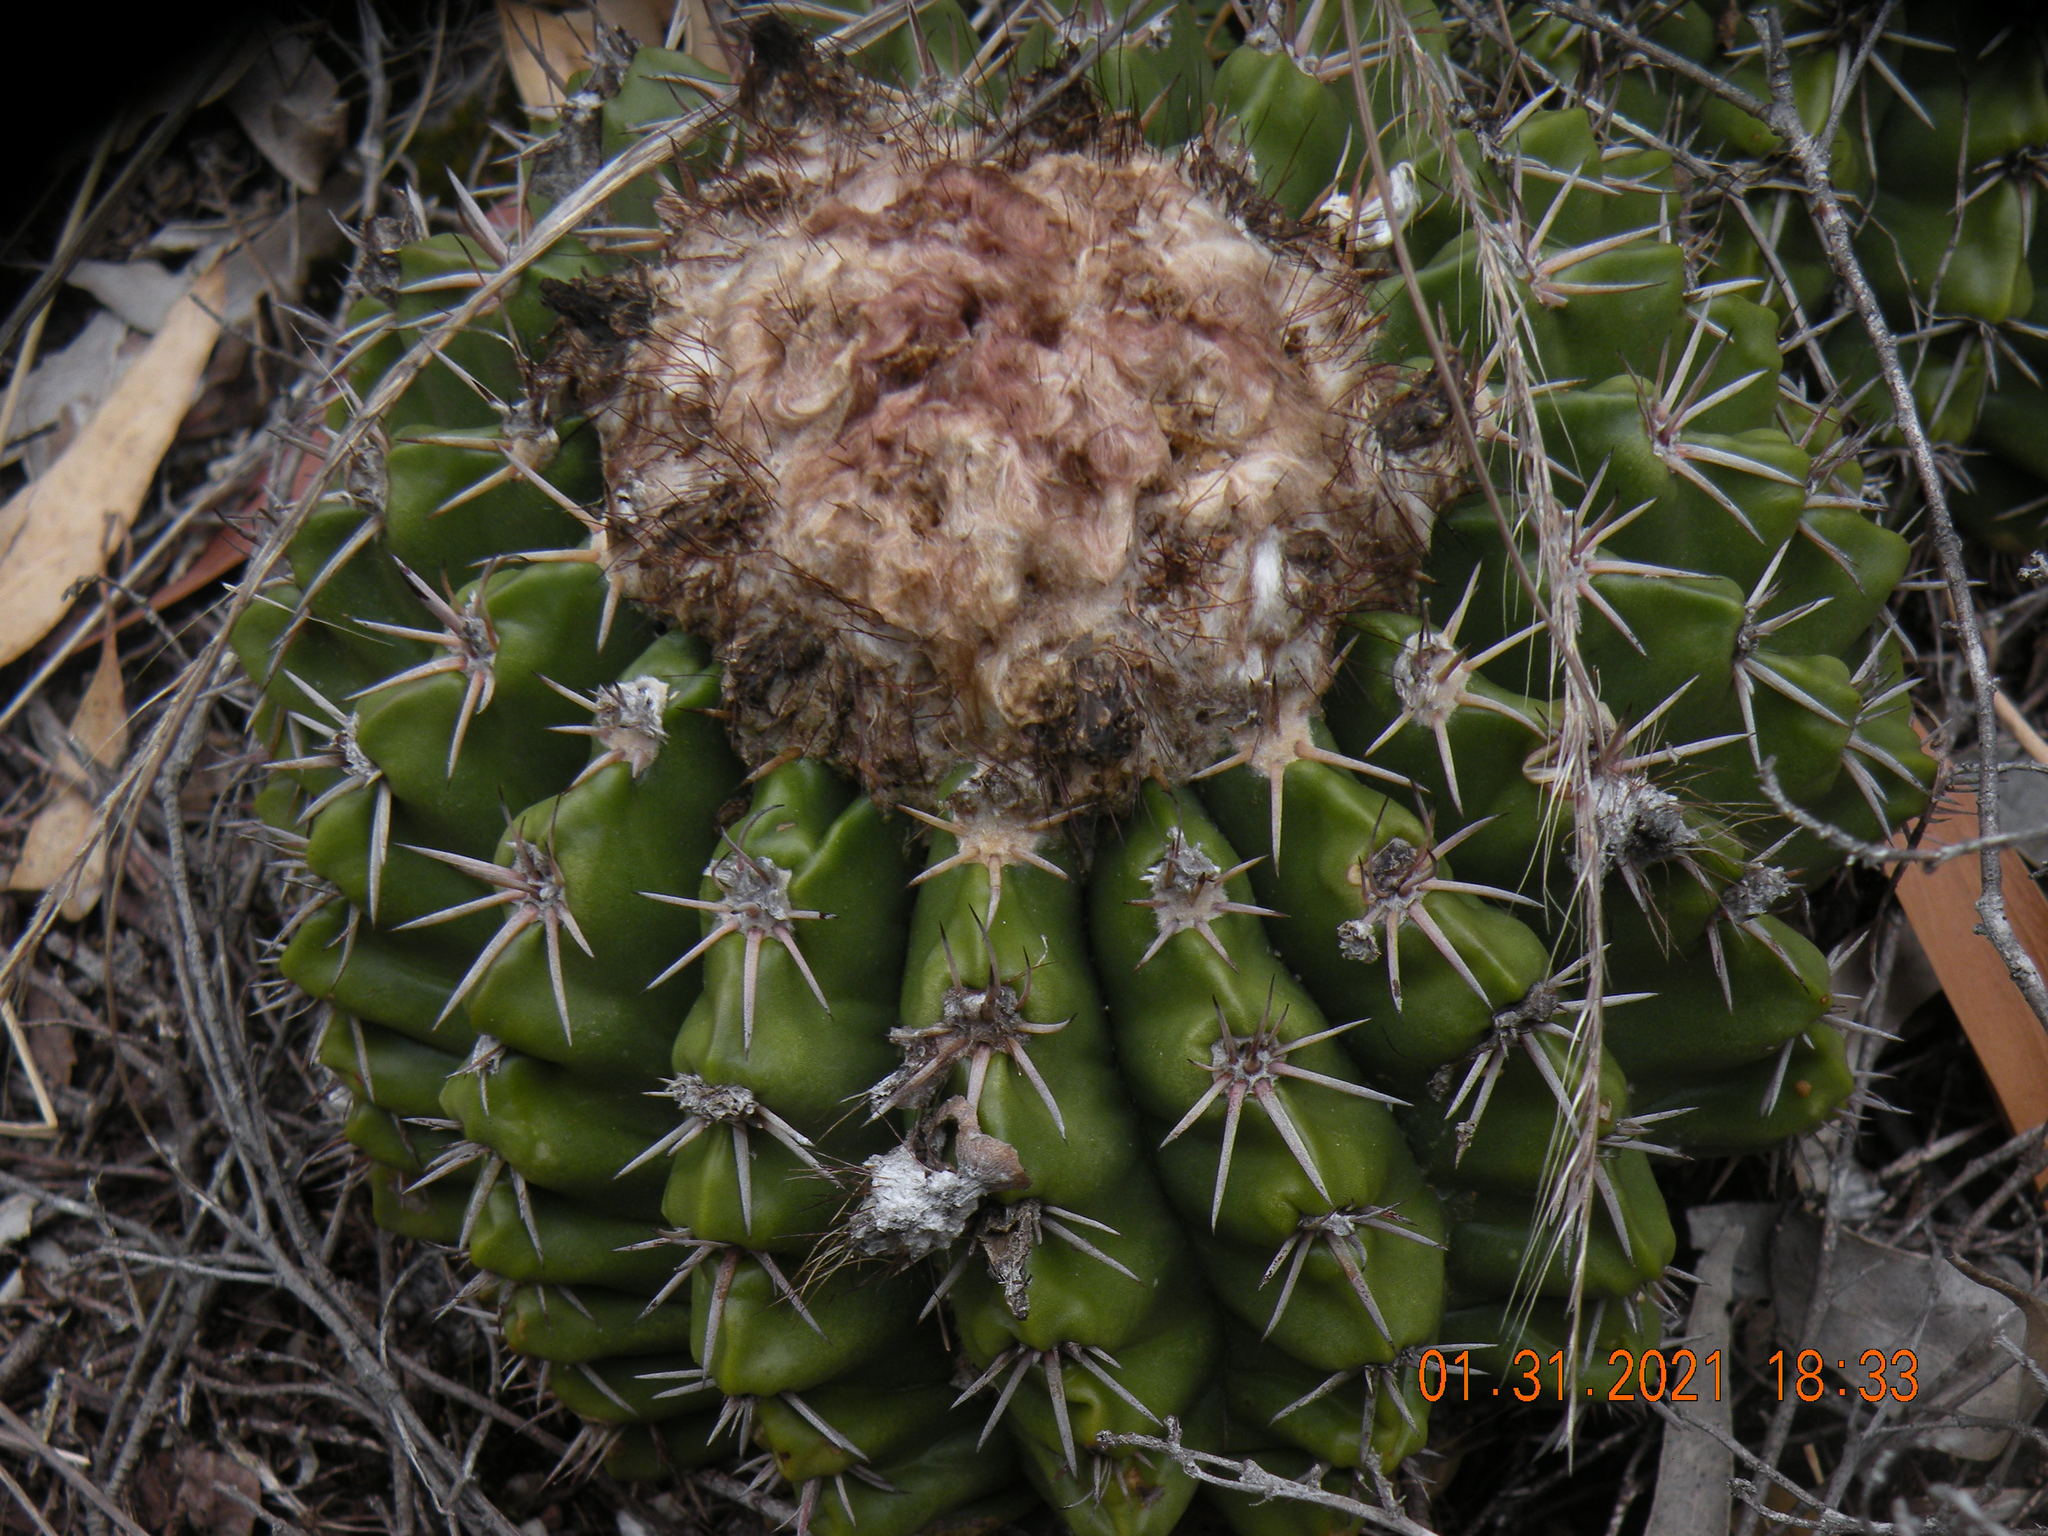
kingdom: Plantae
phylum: Tracheophyta
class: Magnoliopsida
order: Caryophyllales
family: Cactaceae
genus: Parodia
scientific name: Parodia erinacea
